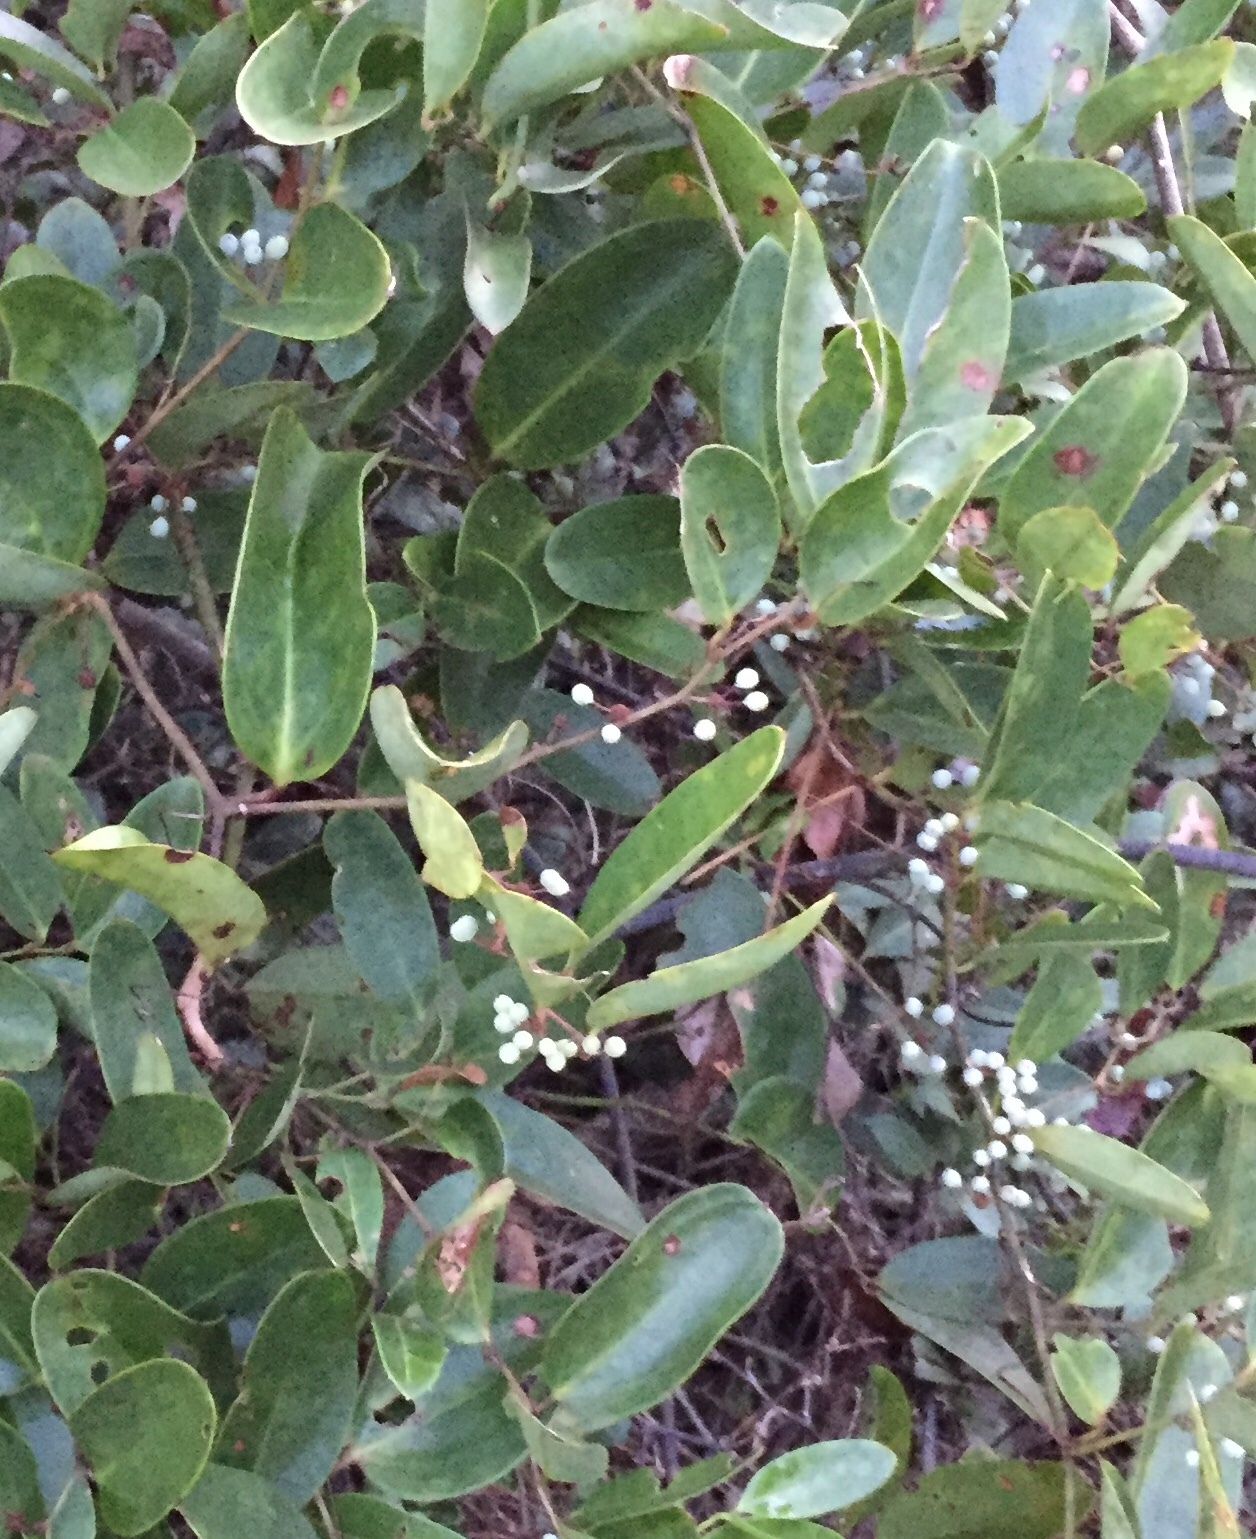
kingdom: Plantae
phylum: Tracheophyta
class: Liliopsida
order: Liliales
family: Smilacaceae
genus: Smilax
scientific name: Smilax laurifolia
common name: Bamboovine
